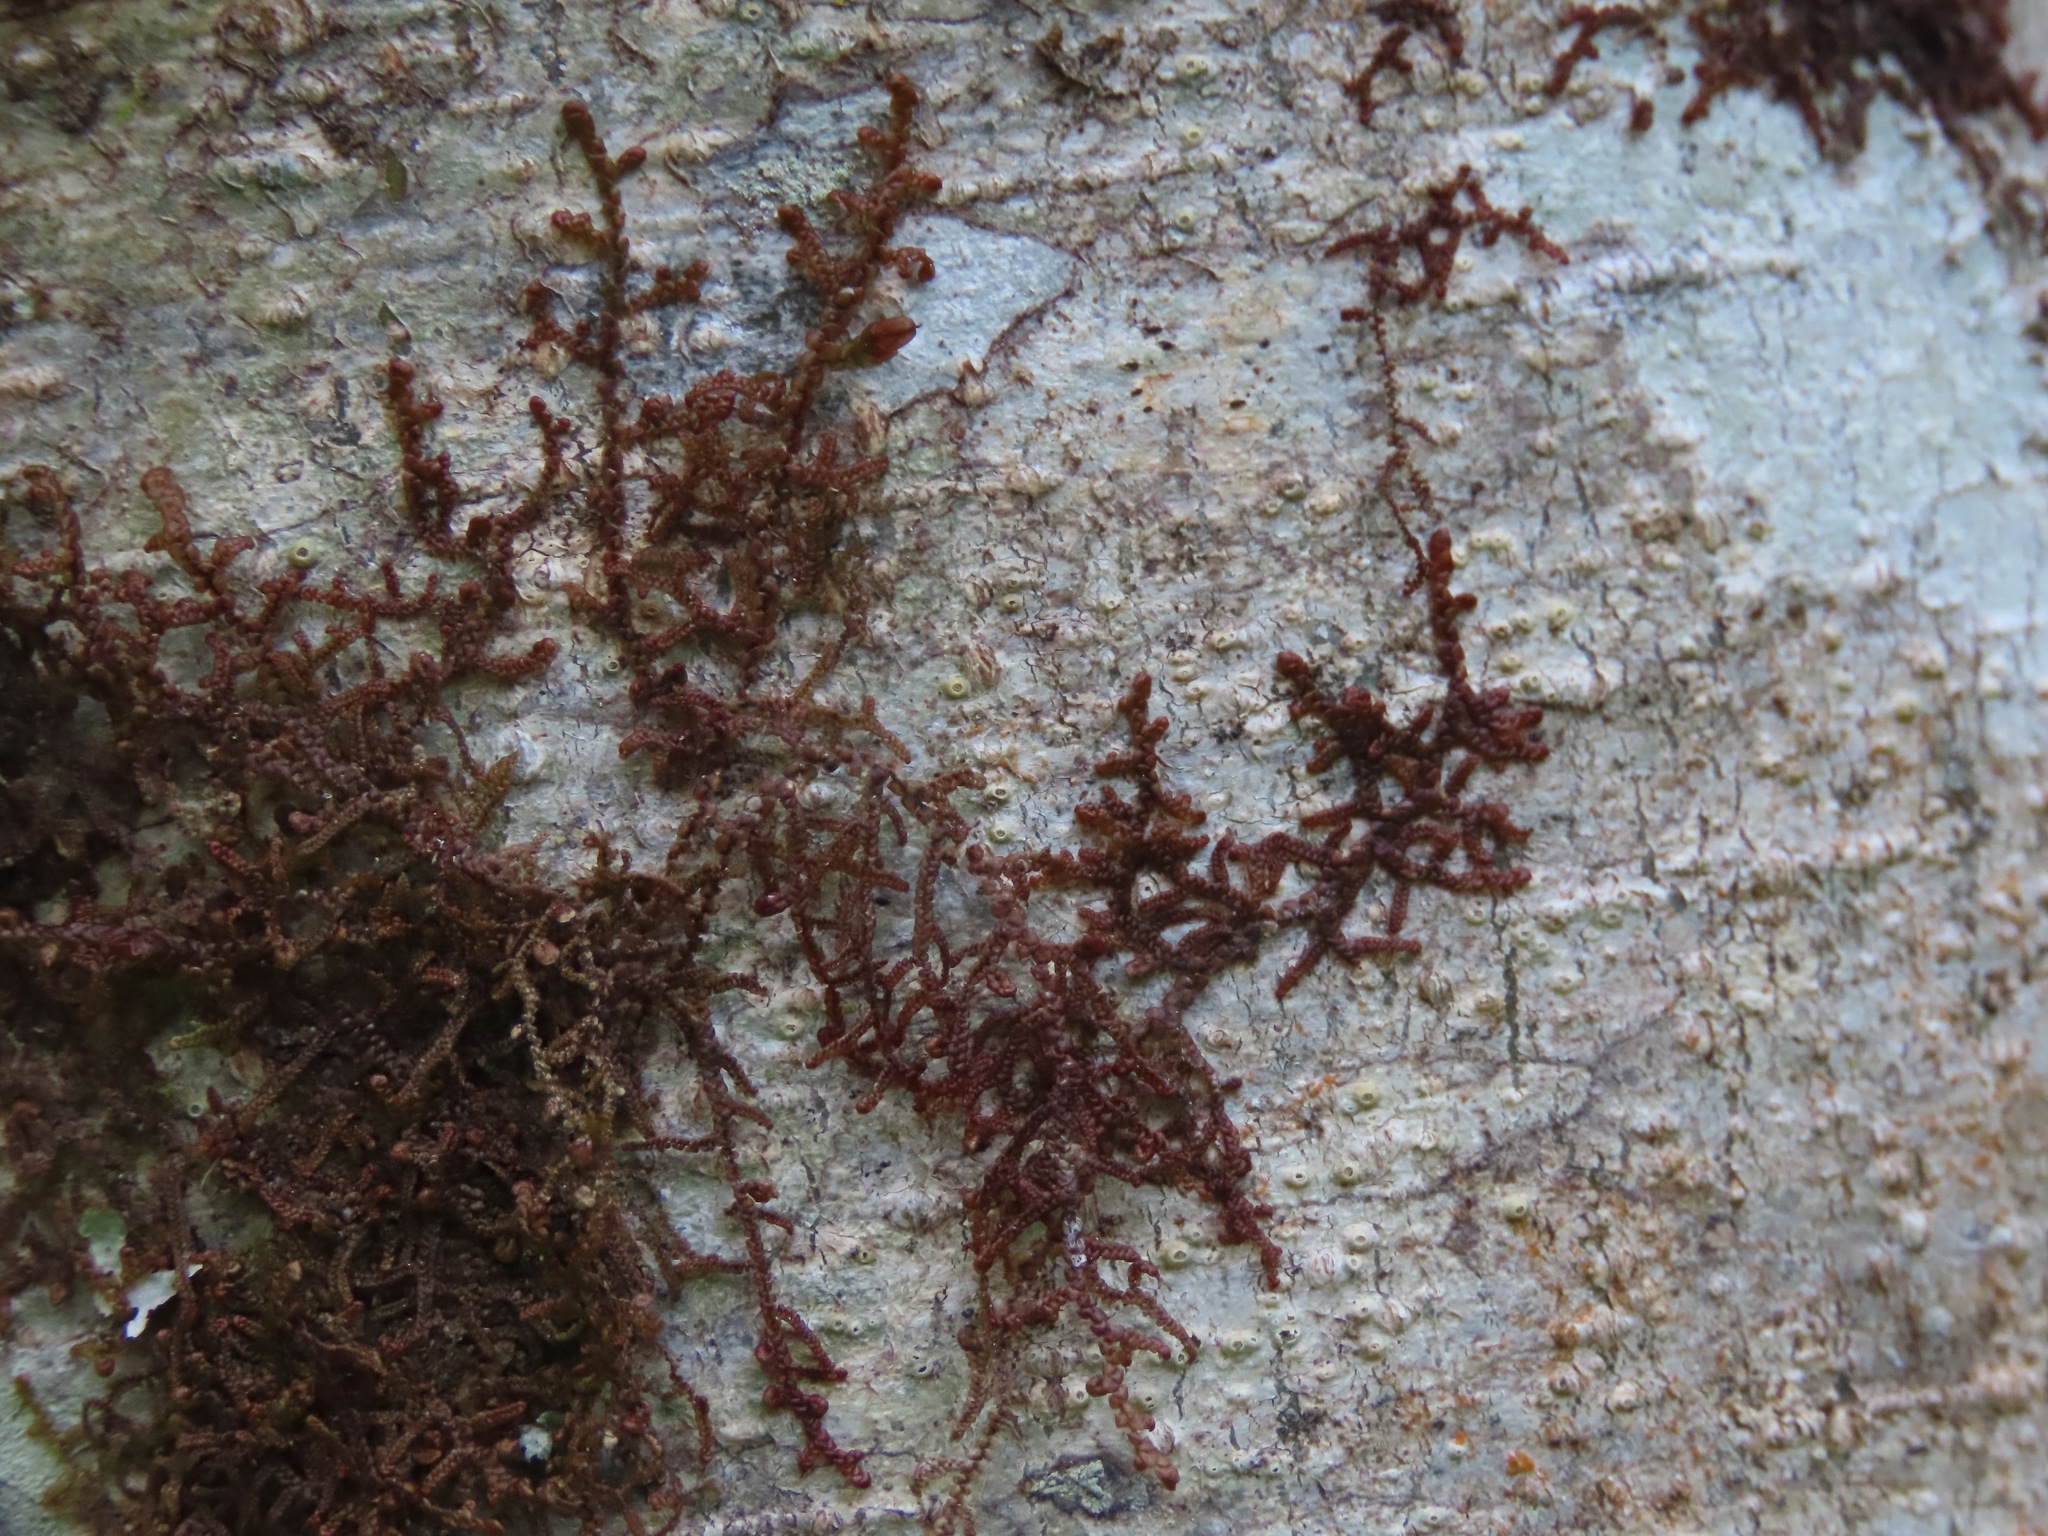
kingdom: Plantae
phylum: Marchantiophyta
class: Jungermanniopsida
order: Porellales
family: Frullaniaceae
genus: Frullania
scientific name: Frullania nisquallensis
